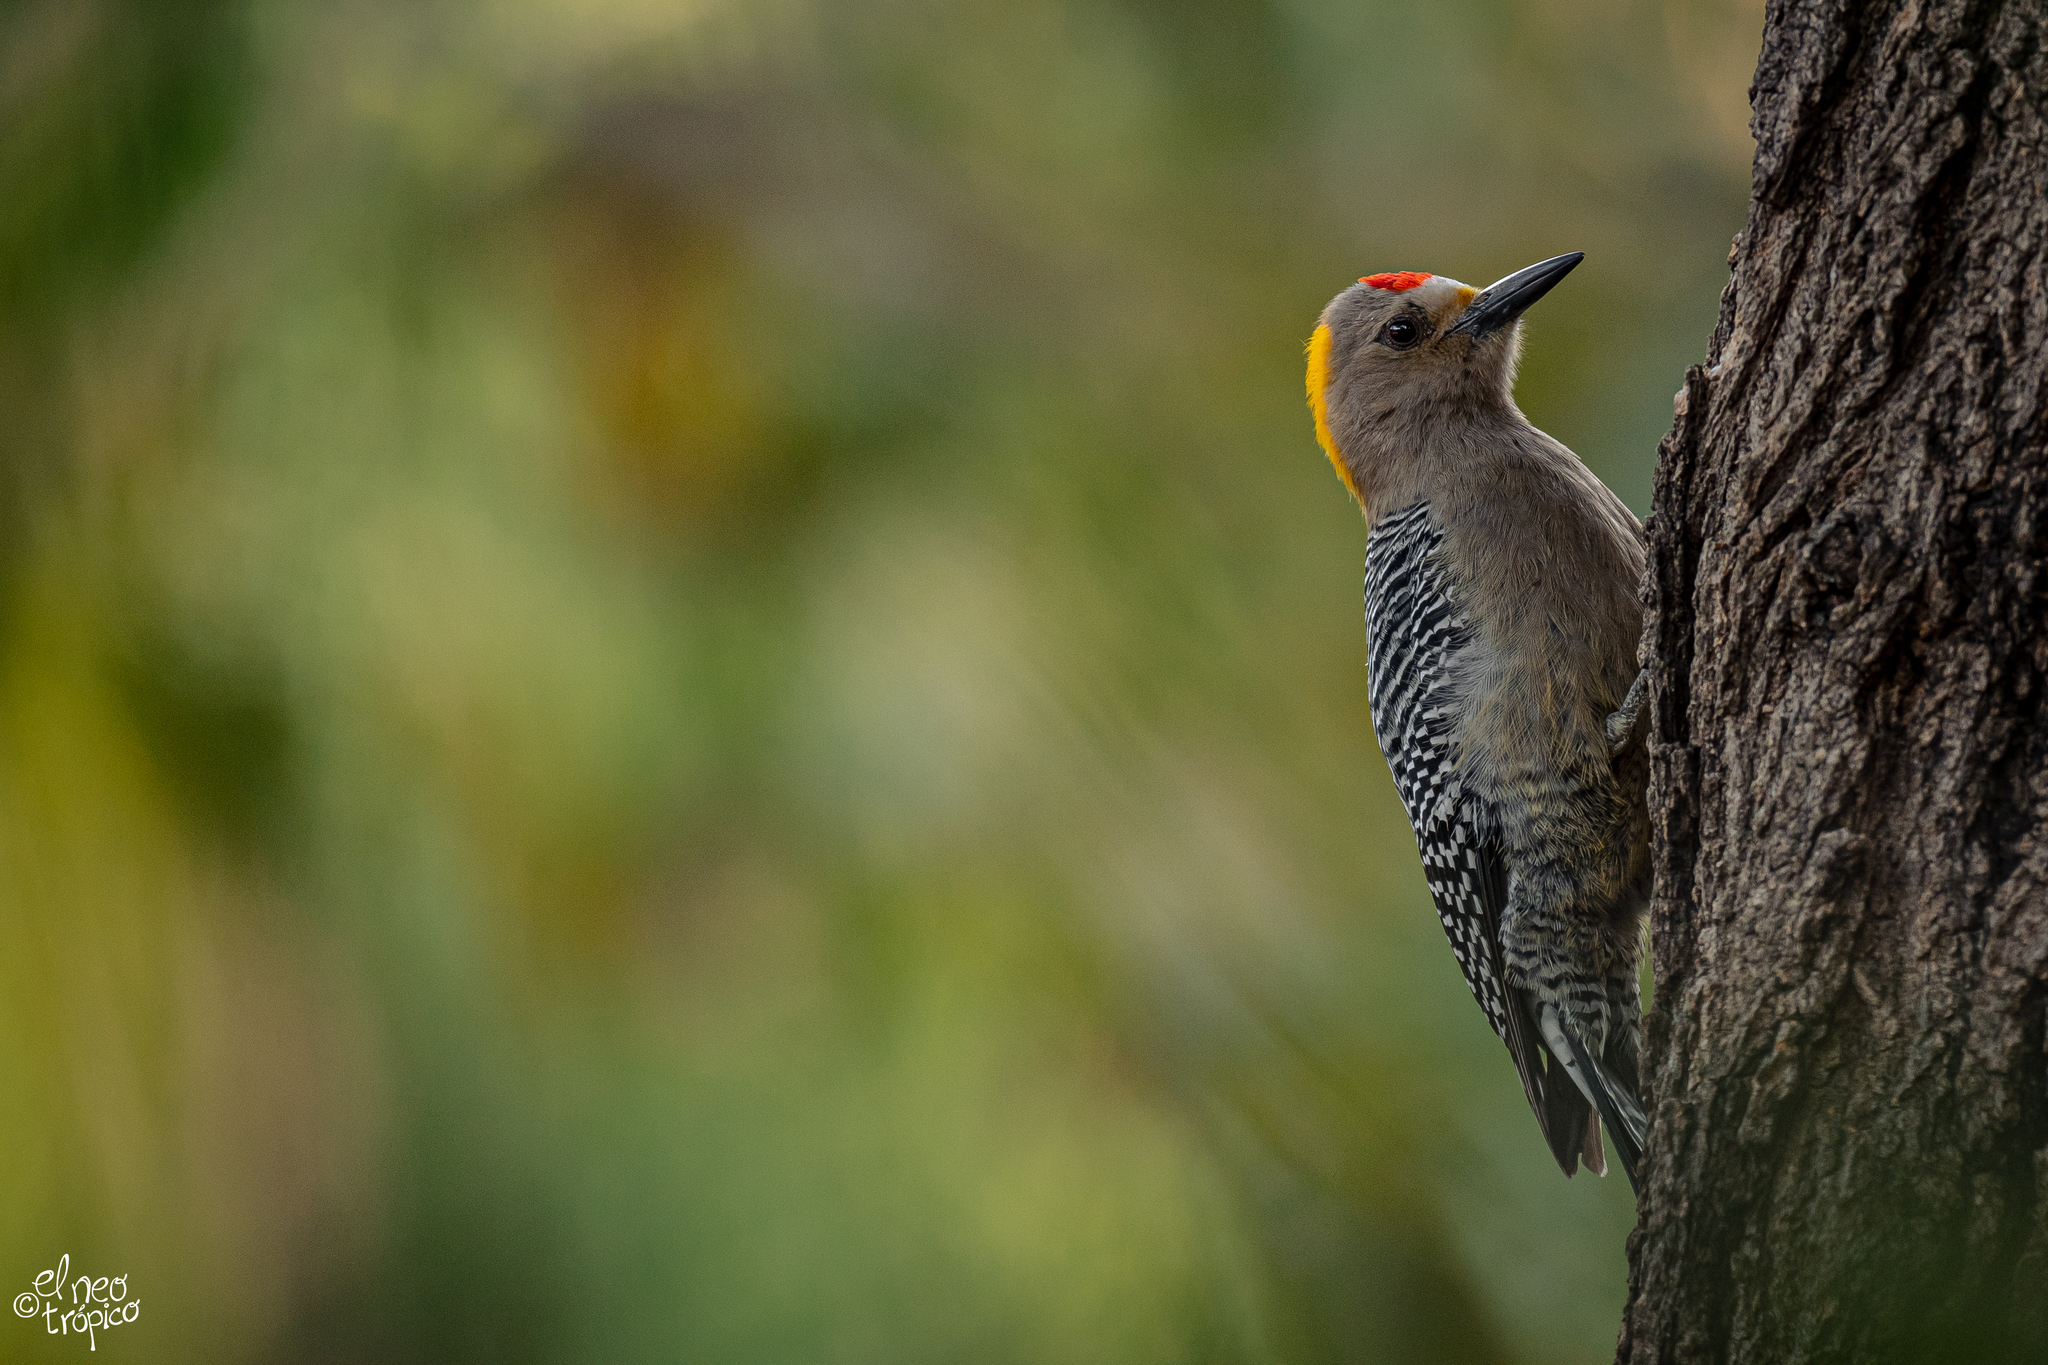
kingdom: Animalia
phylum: Chordata
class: Aves
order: Piciformes
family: Picidae
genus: Melanerpes
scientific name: Melanerpes aurifrons
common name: Golden-fronted woodpecker
